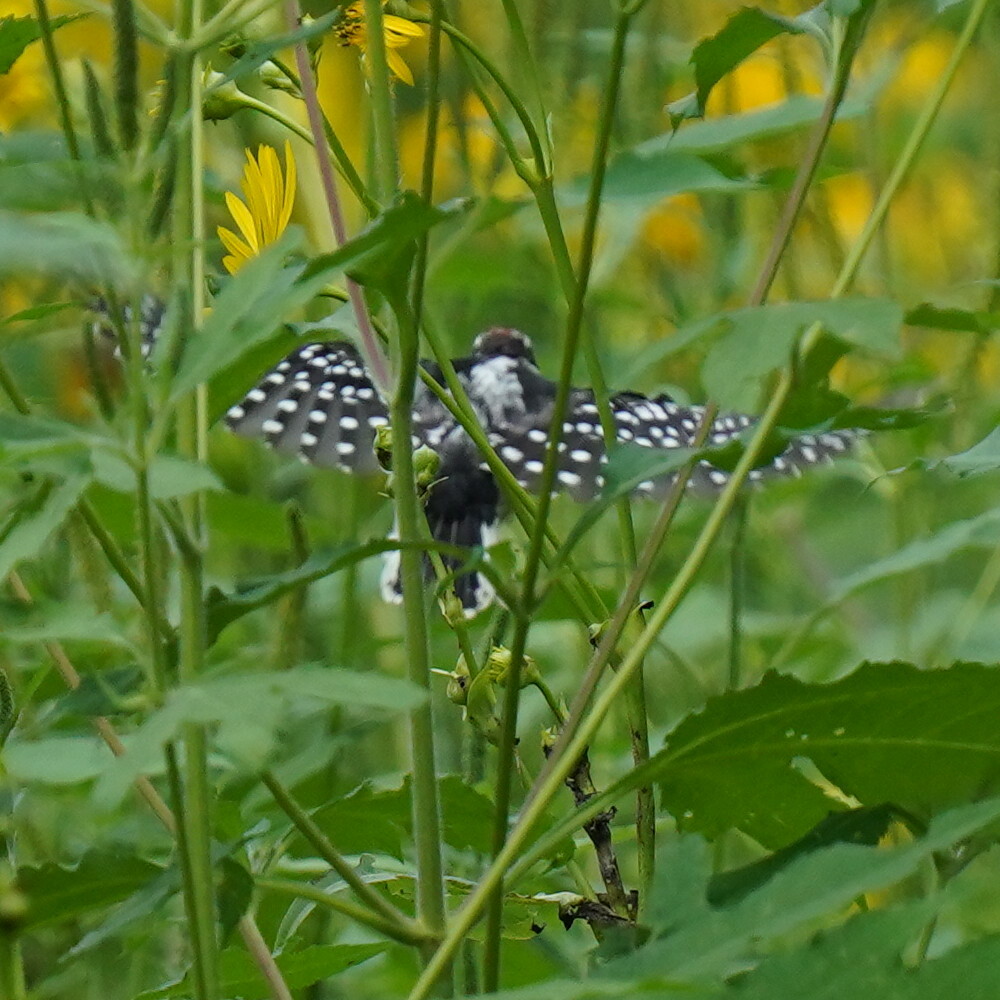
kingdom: Animalia
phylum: Chordata
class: Aves
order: Piciformes
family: Picidae
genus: Dryobates
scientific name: Dryobates pubescens
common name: Downy woodpecker
